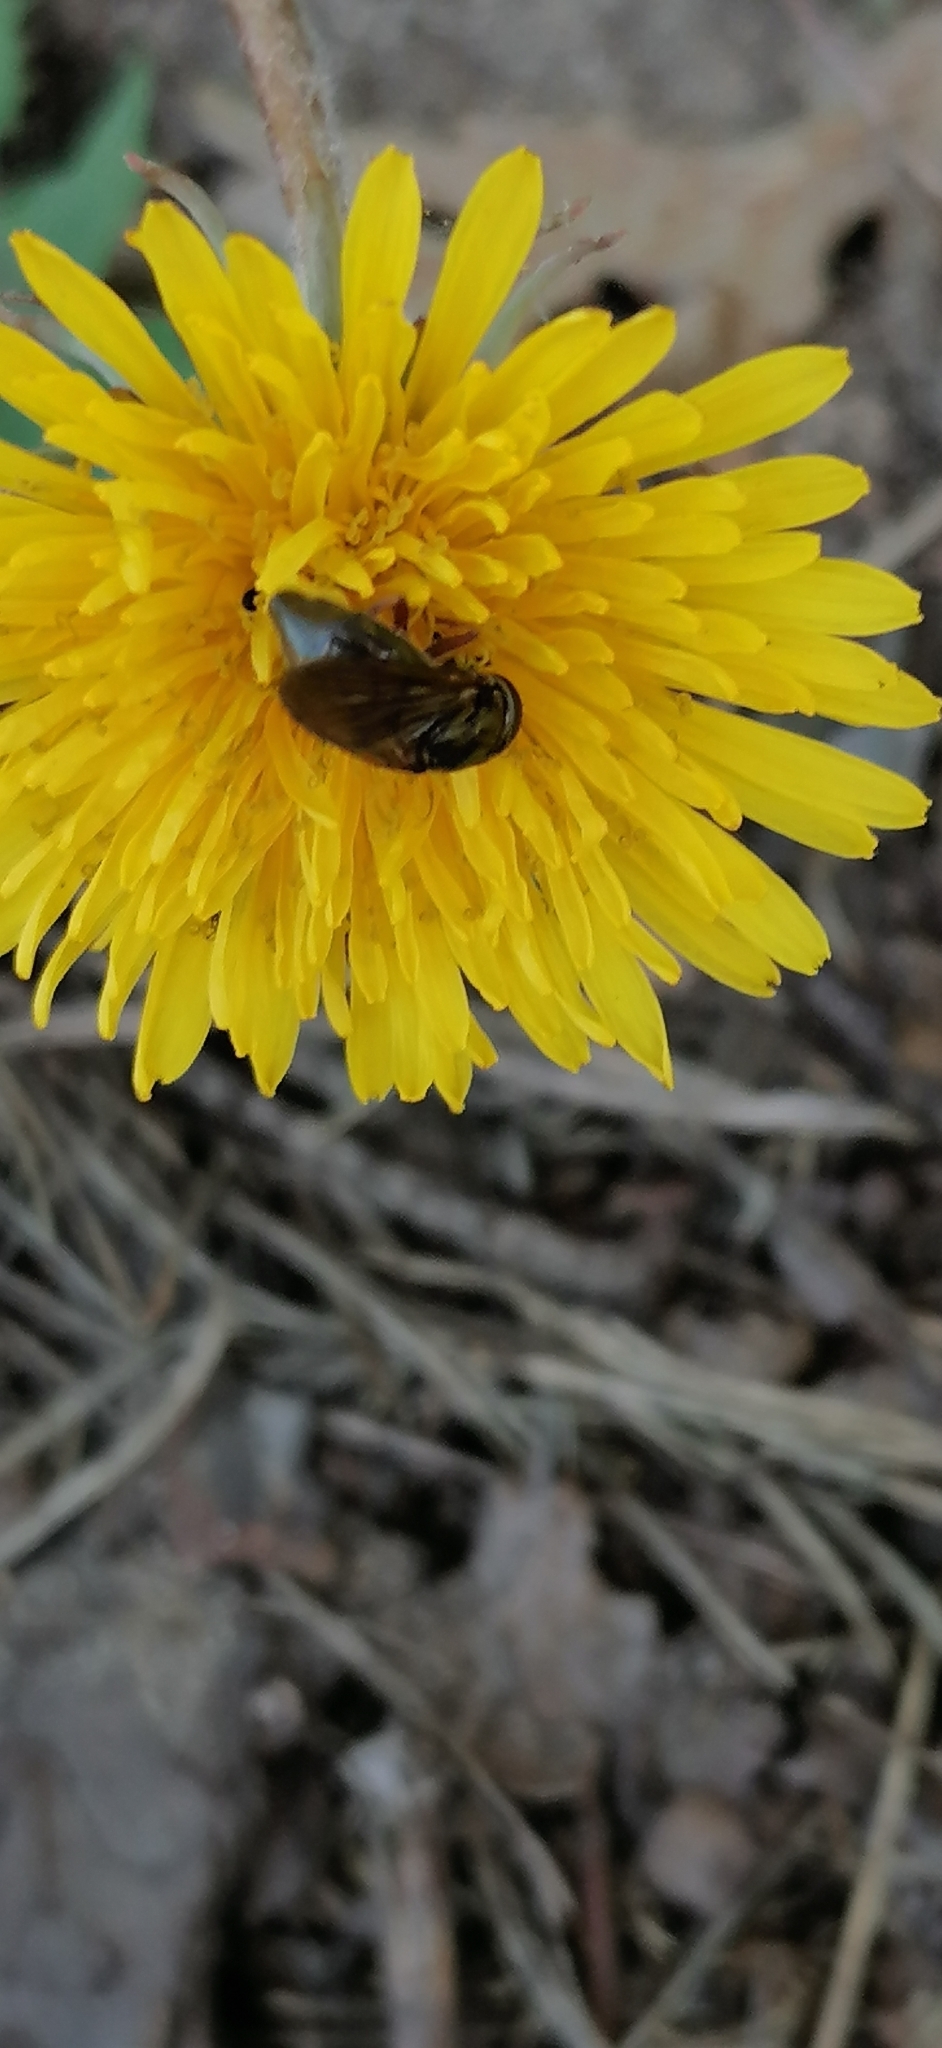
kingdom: Animalia
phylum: Arthropoda
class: Insecta
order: Diptera
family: Syrphidae
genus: Cheilosia
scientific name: Cheilosia flavipes
